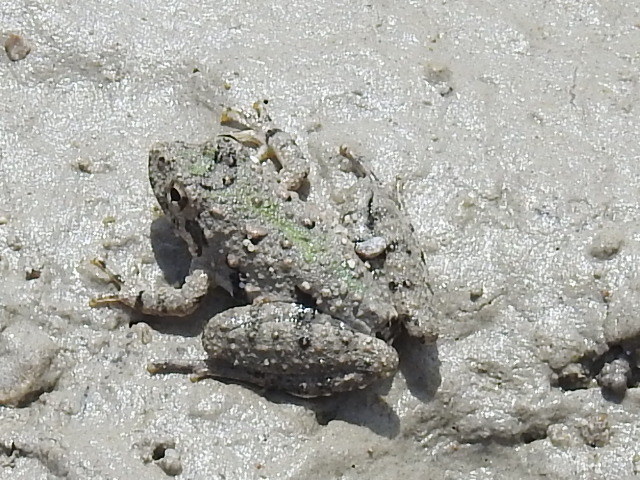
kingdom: Animalia
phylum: Chordata
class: Amphibia
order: Anura
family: Hylidae
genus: Acris
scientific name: Acris blanchardi
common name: Blanchard's cricket frog
